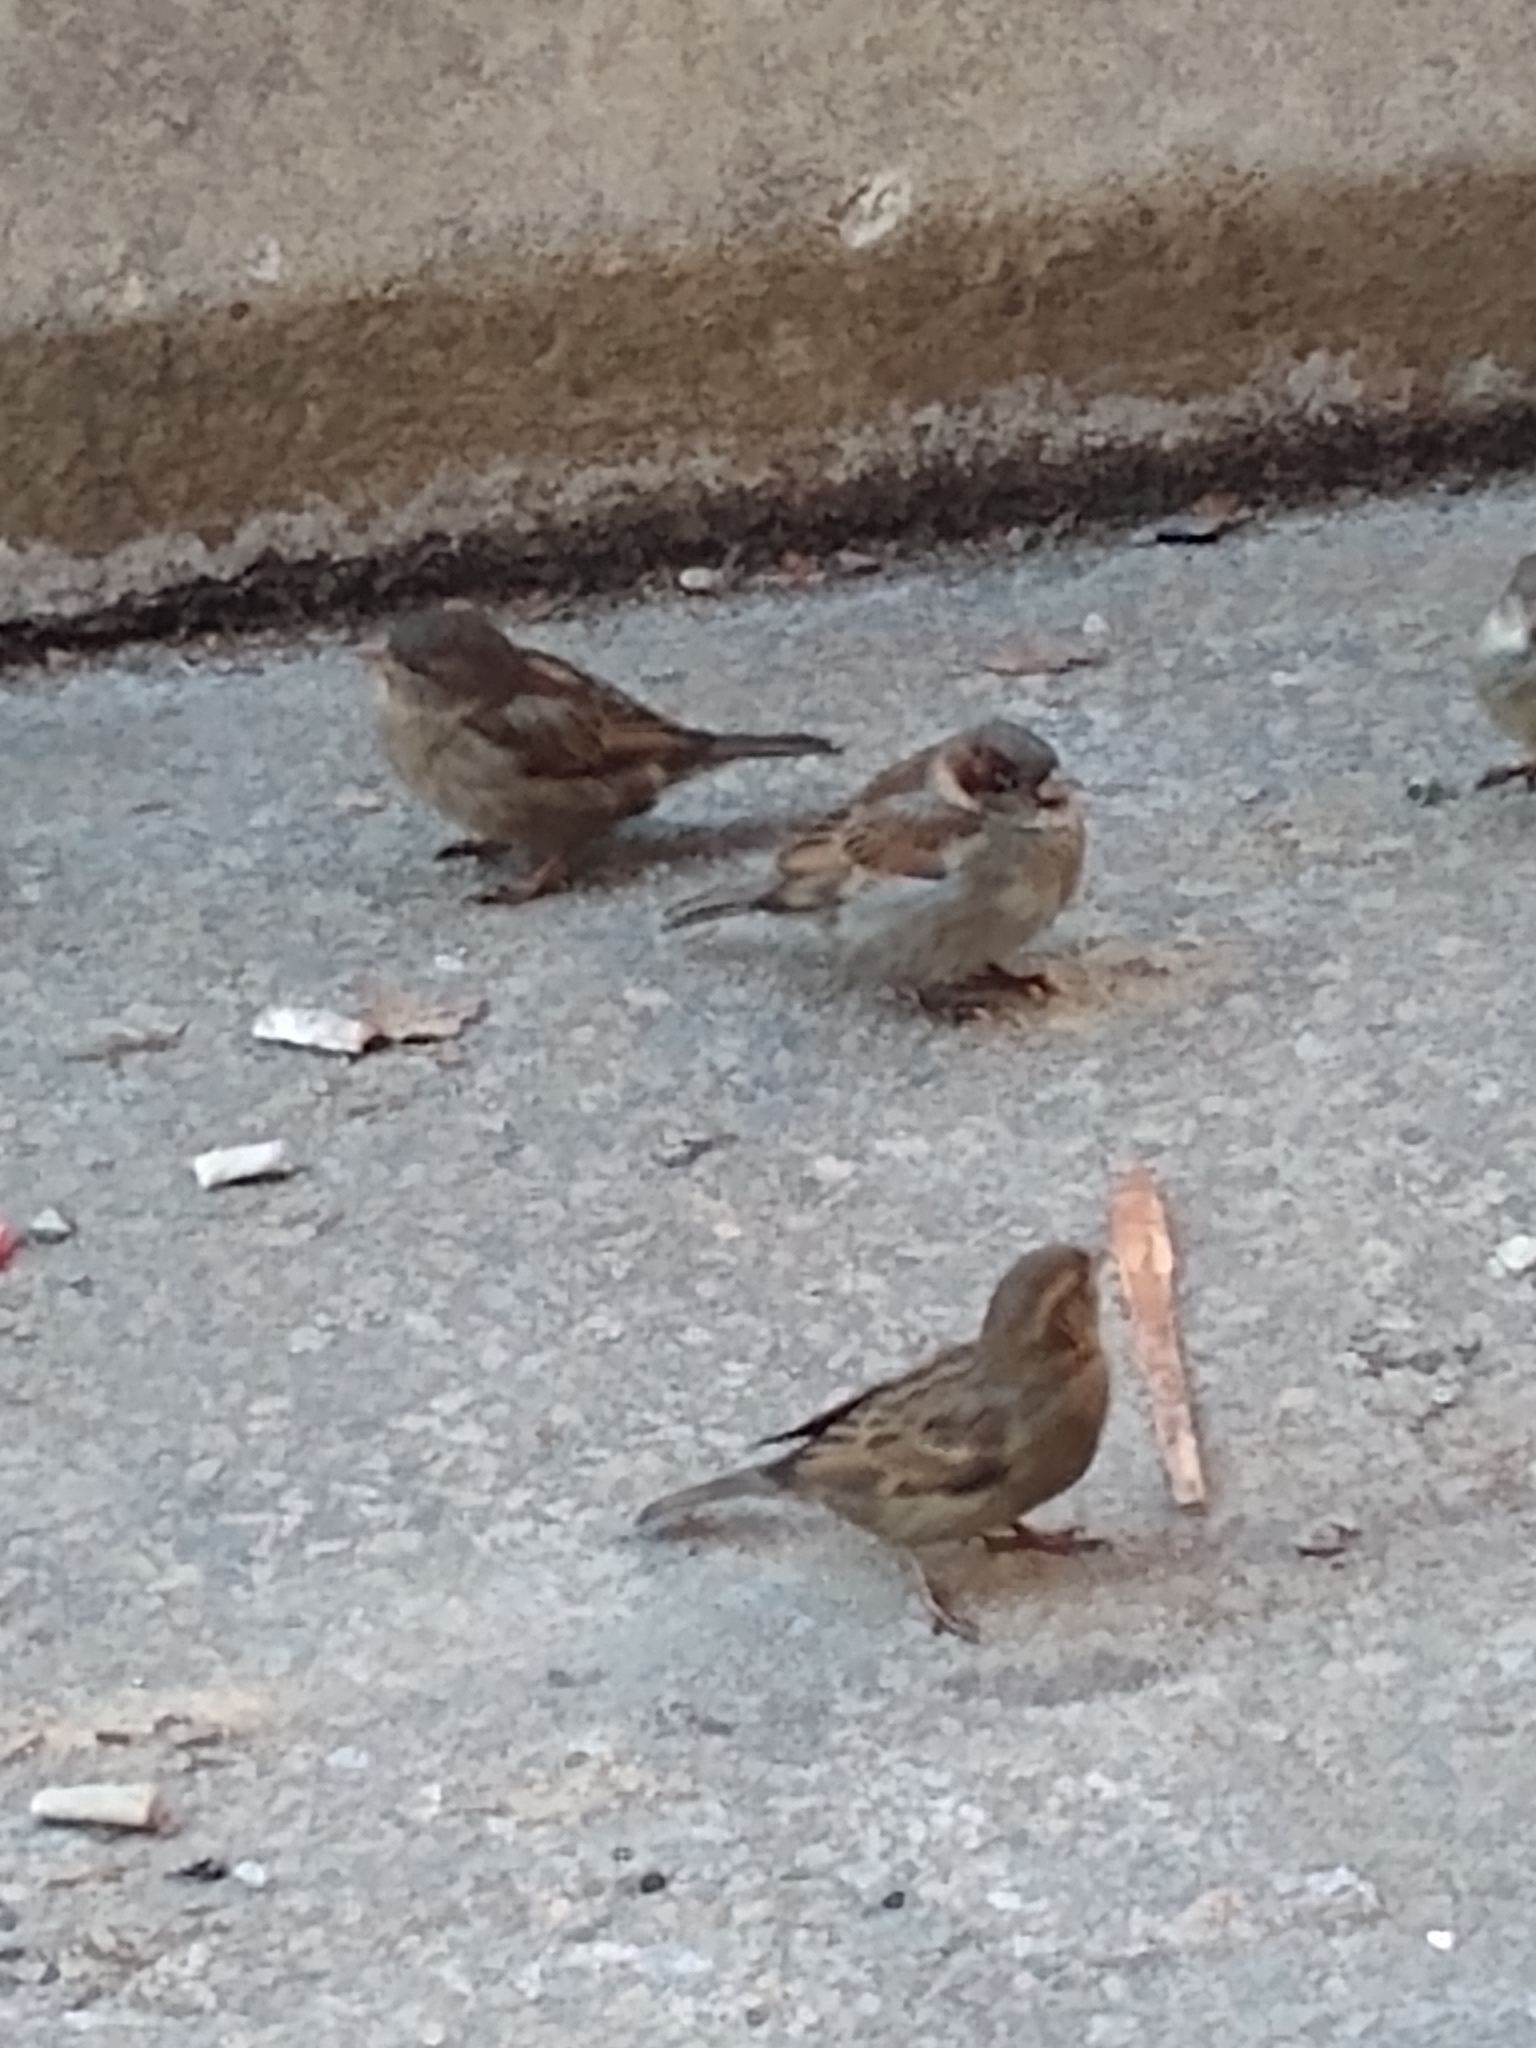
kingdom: Animalia
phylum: Chordata
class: Aves
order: Passeriformes
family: Passeridae
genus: Passer
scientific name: Passer domesticus
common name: House sparrow
